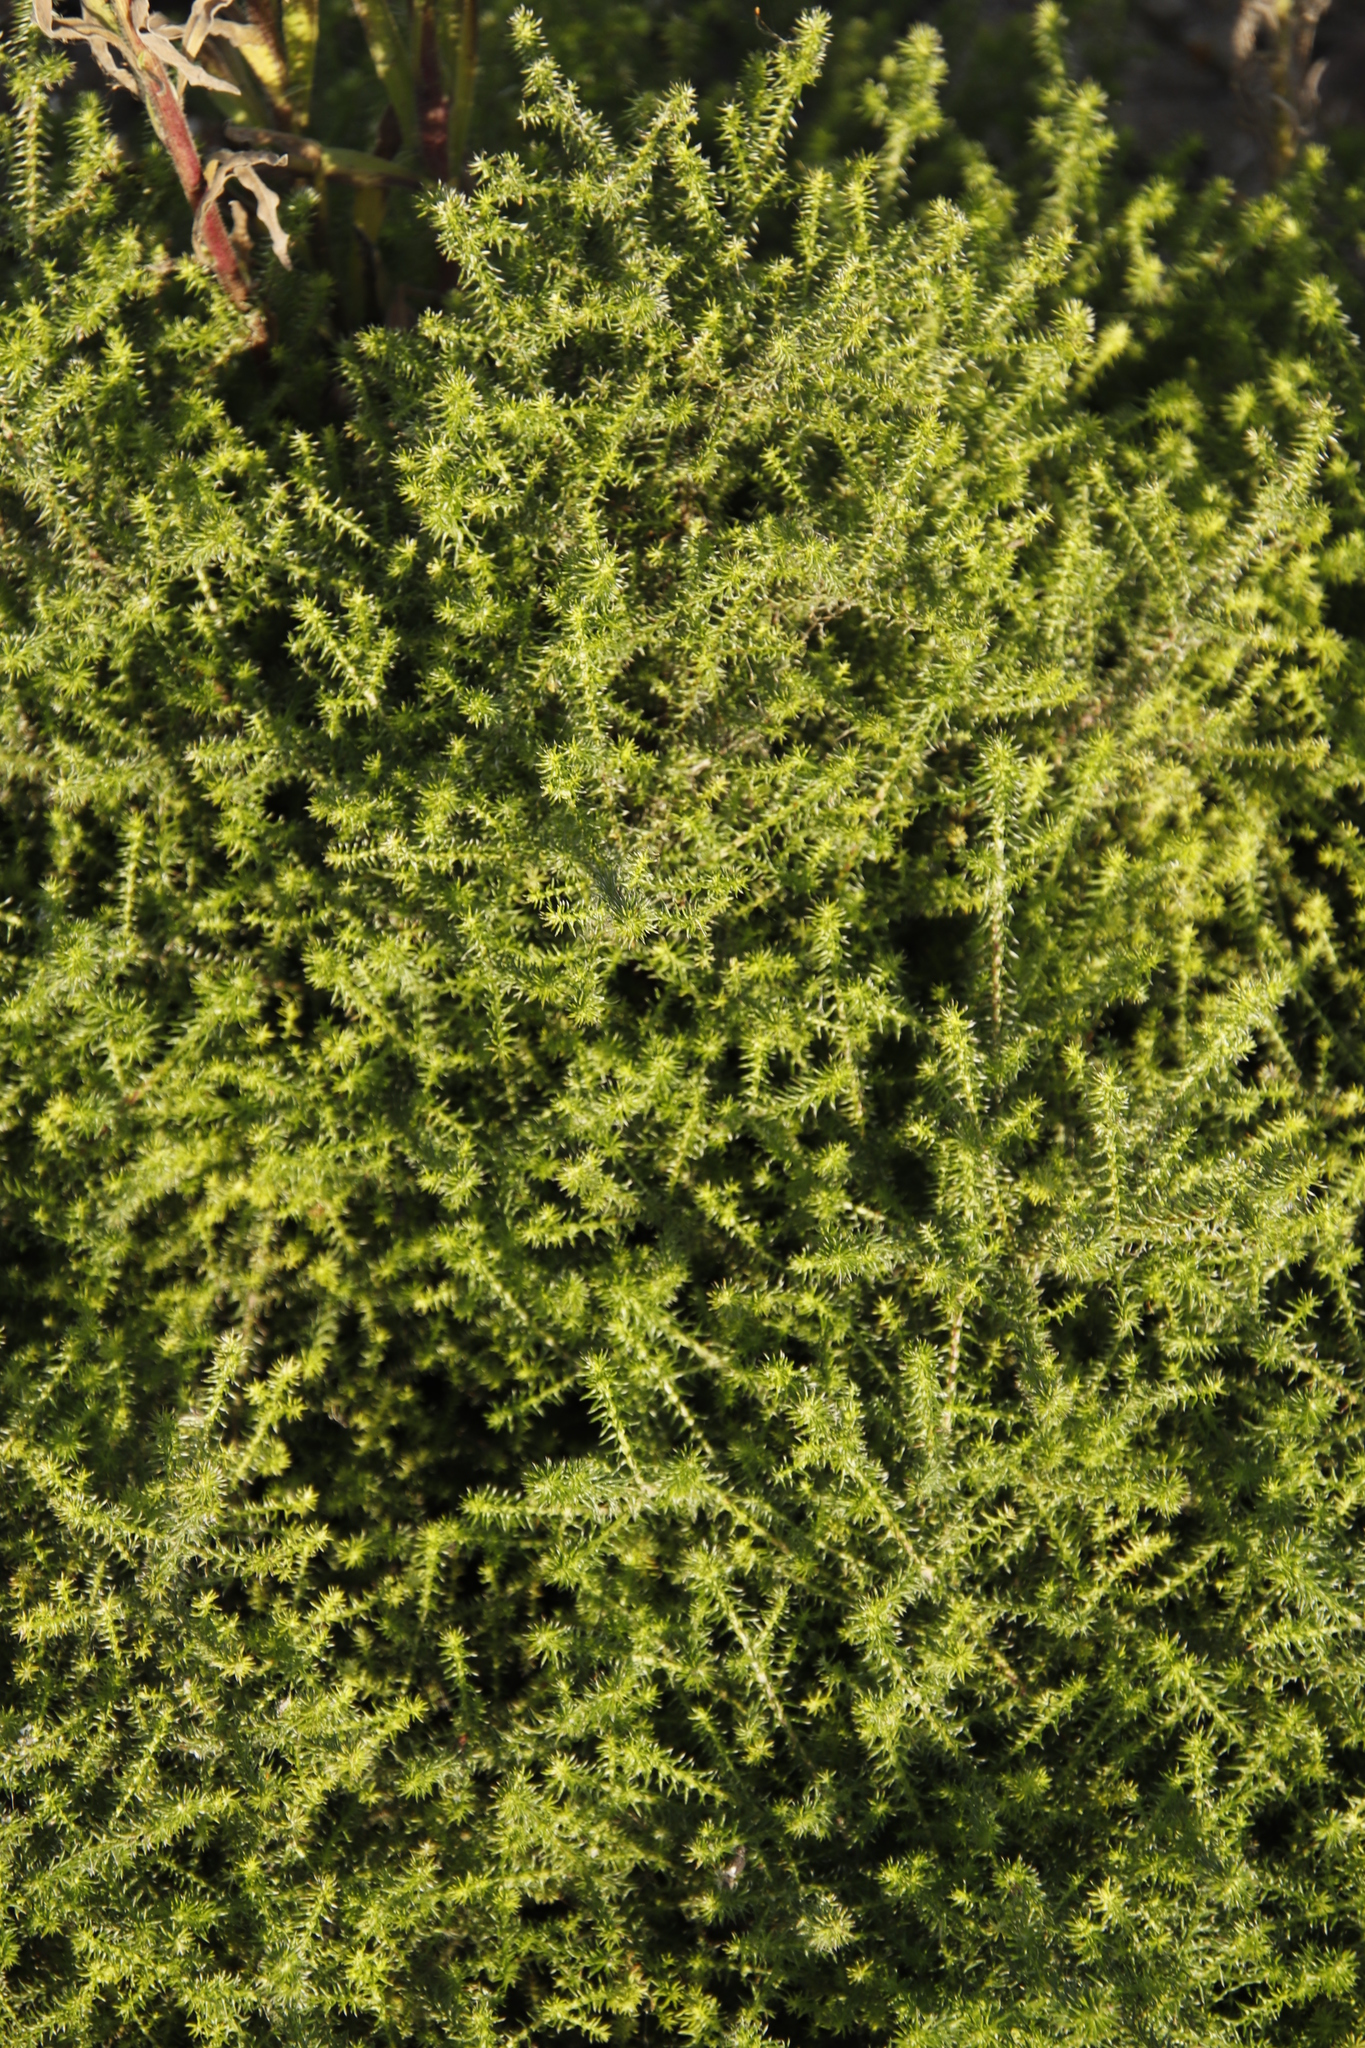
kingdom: Plantae
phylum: Tracheophyta
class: Magnoliopsida
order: Asterales
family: Asteraceae
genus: Seriphium
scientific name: Seriphium cinereum
